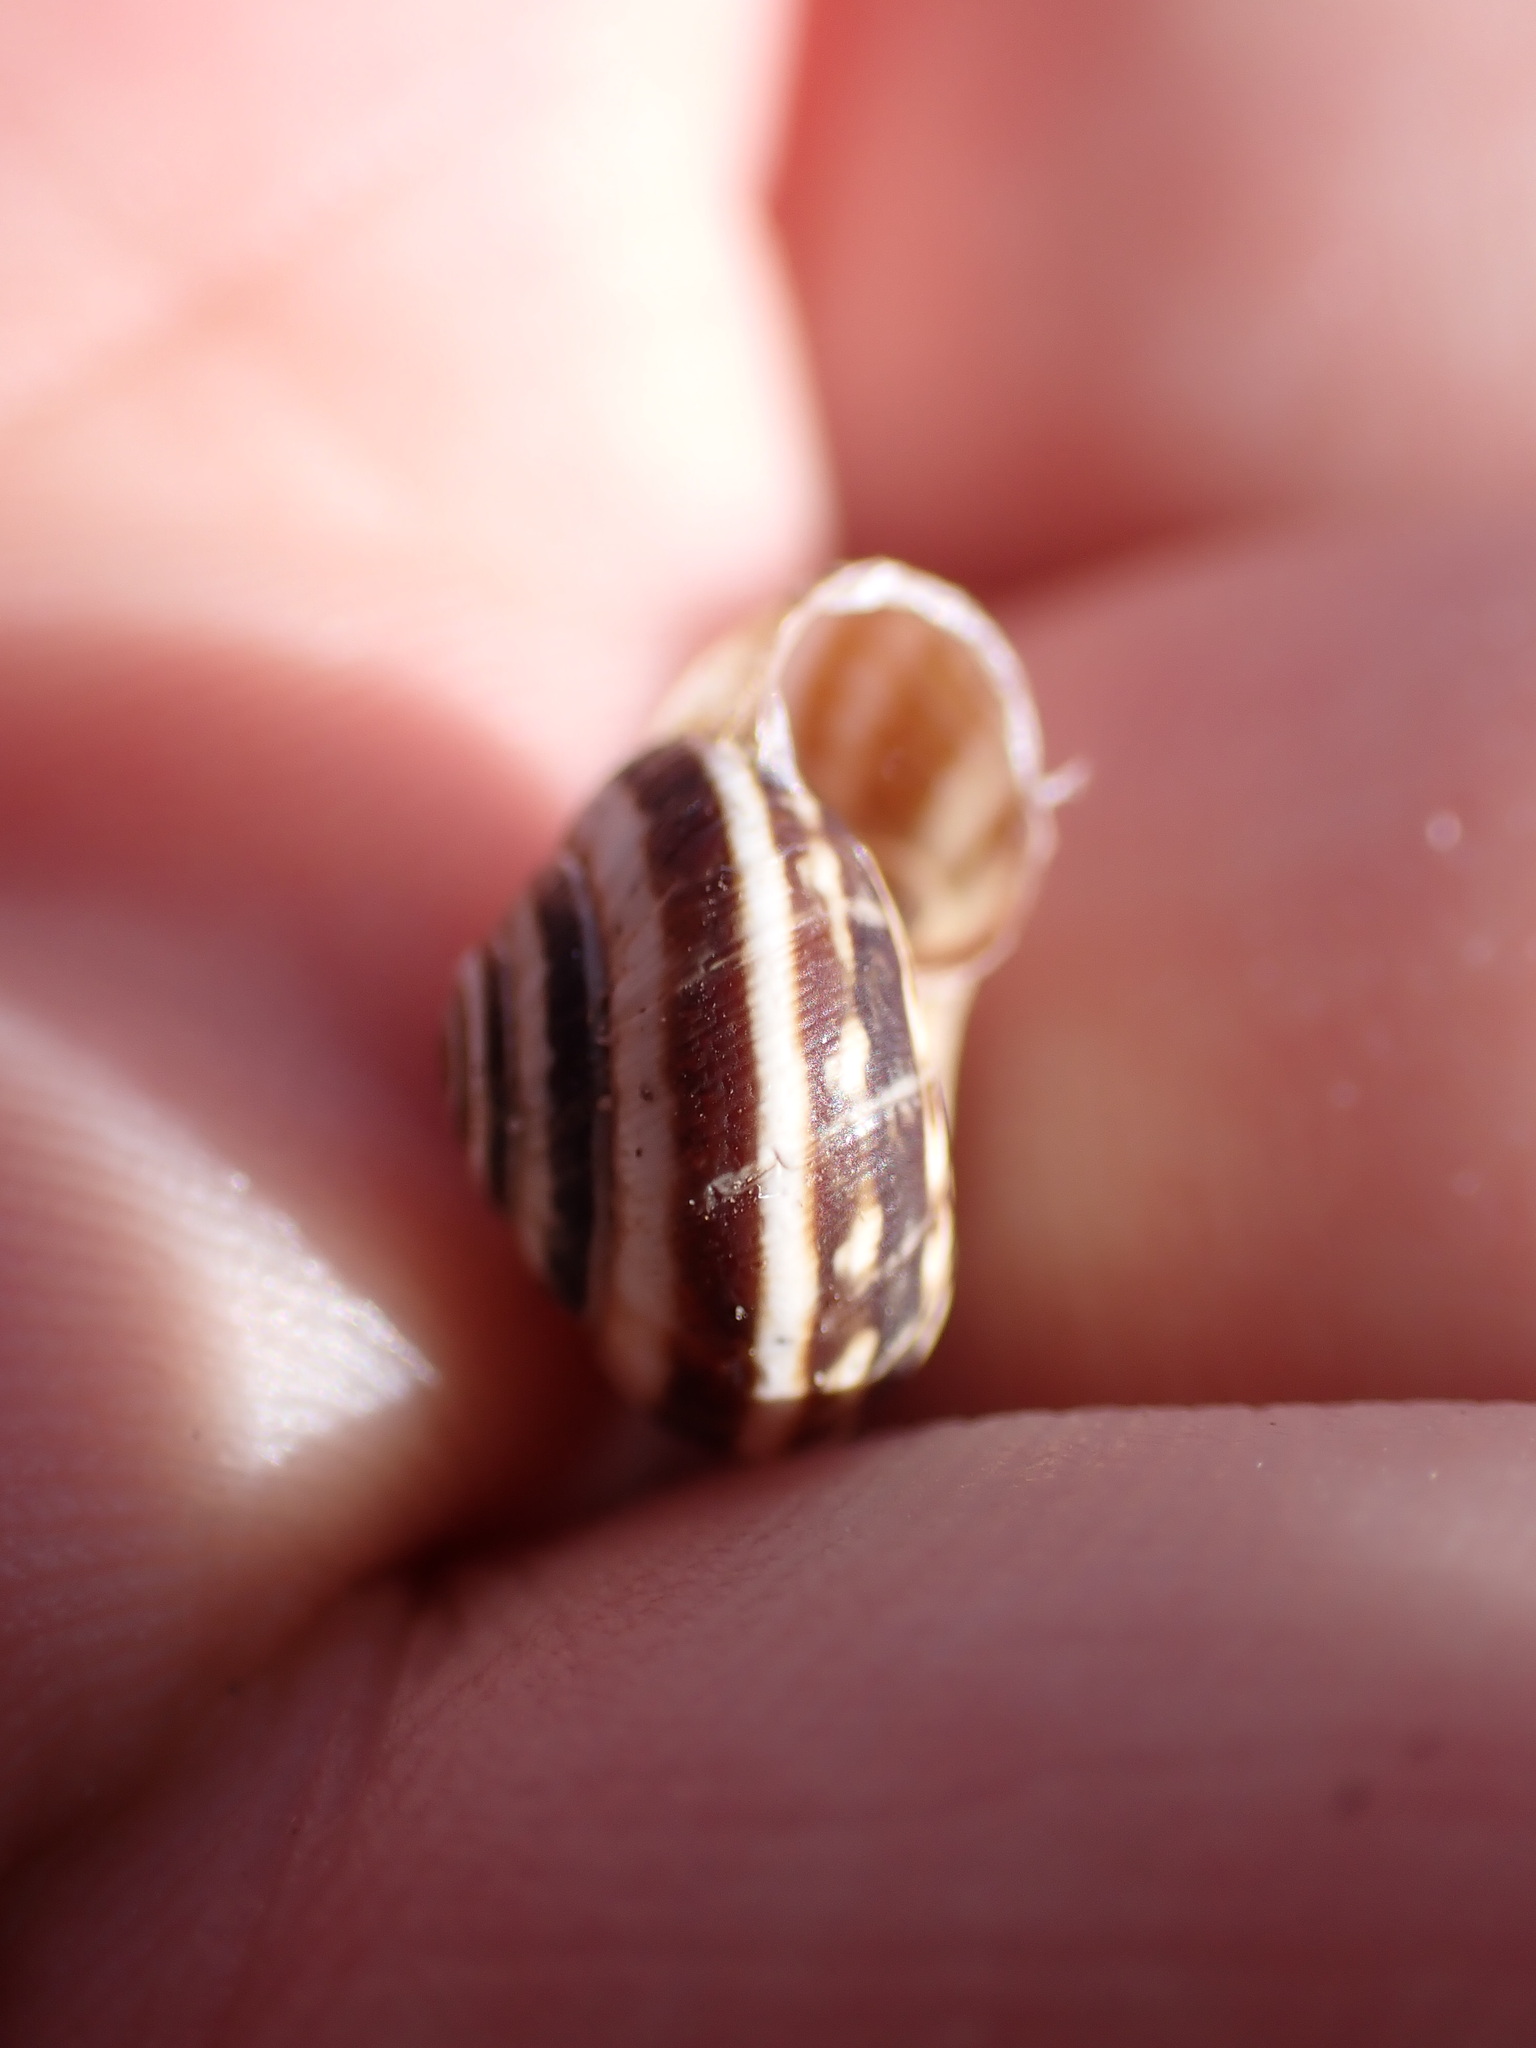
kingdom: Animalia
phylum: Mollusca
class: Gastropoda
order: Stylommatophora
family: Geomitridae
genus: Cernuella
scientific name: Cernuella virgata
